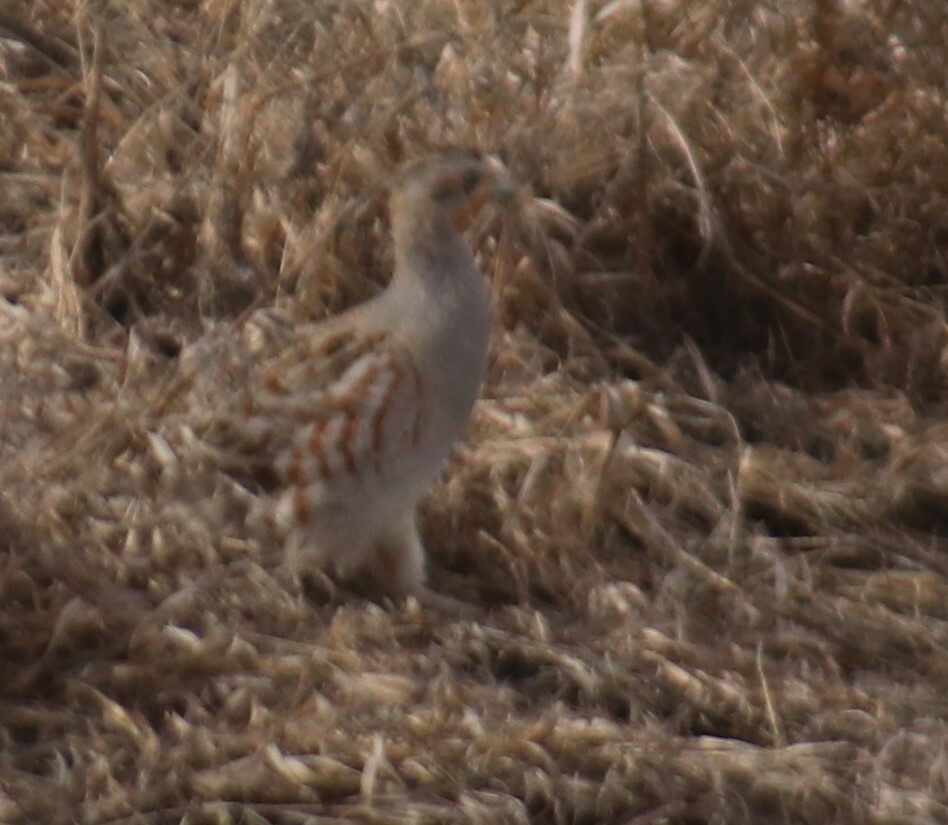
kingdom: Animalia
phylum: Chordata
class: Aves
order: Galliformes
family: Phasianidae
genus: Perdix
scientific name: Perdix perdix
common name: Grey partridge
